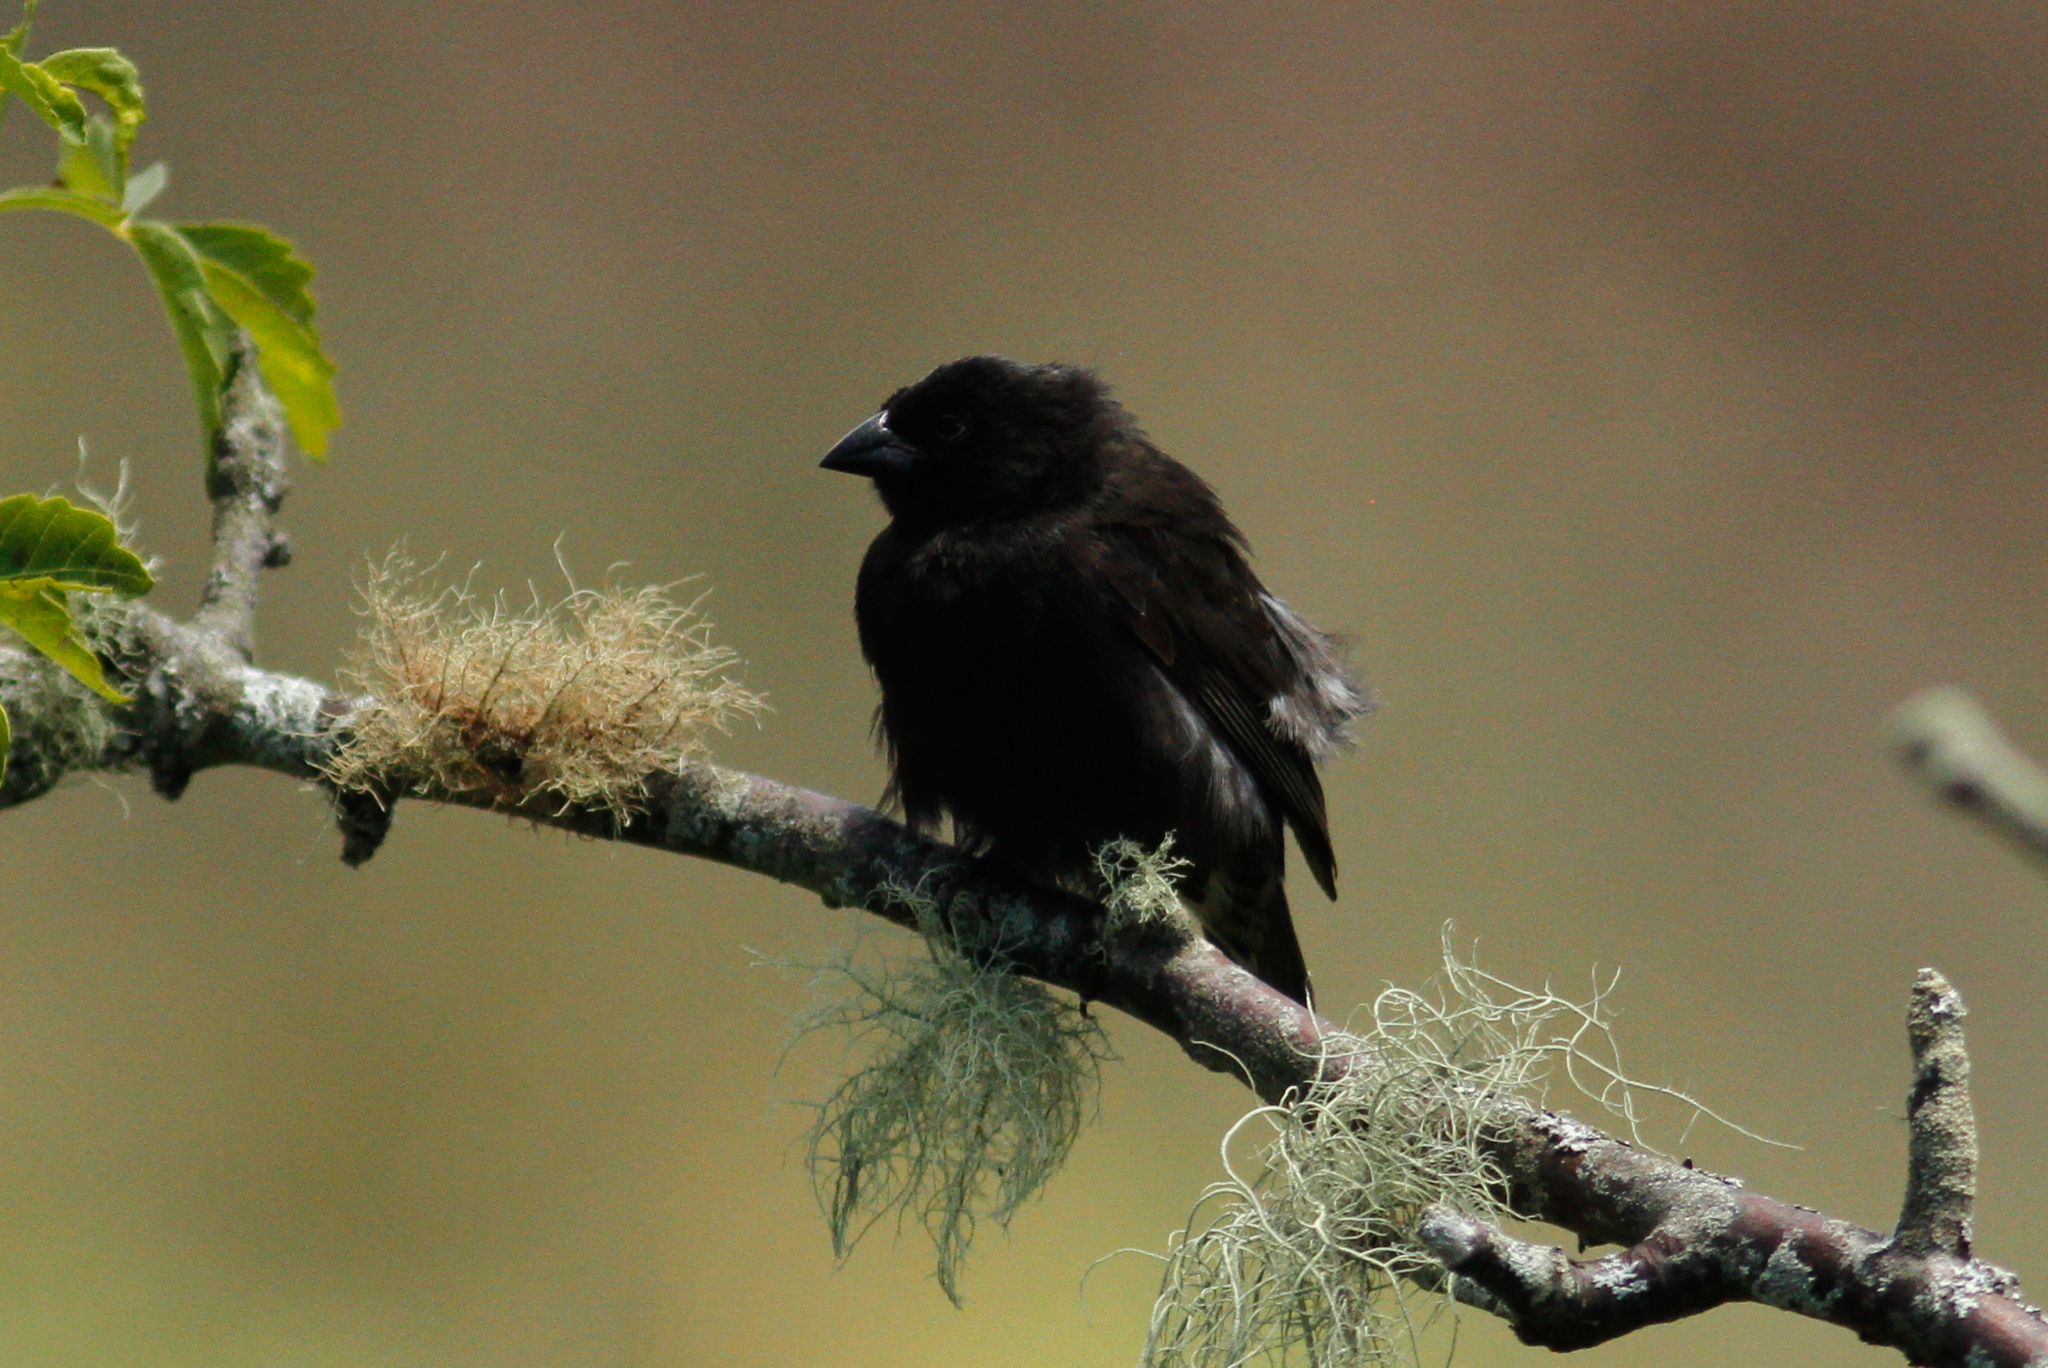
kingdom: Animalia
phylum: Chordata
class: Aves
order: Passeriformes
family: Thraupidae
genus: Geospiza
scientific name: Geospiza fuliginosa
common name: Small ground finch
